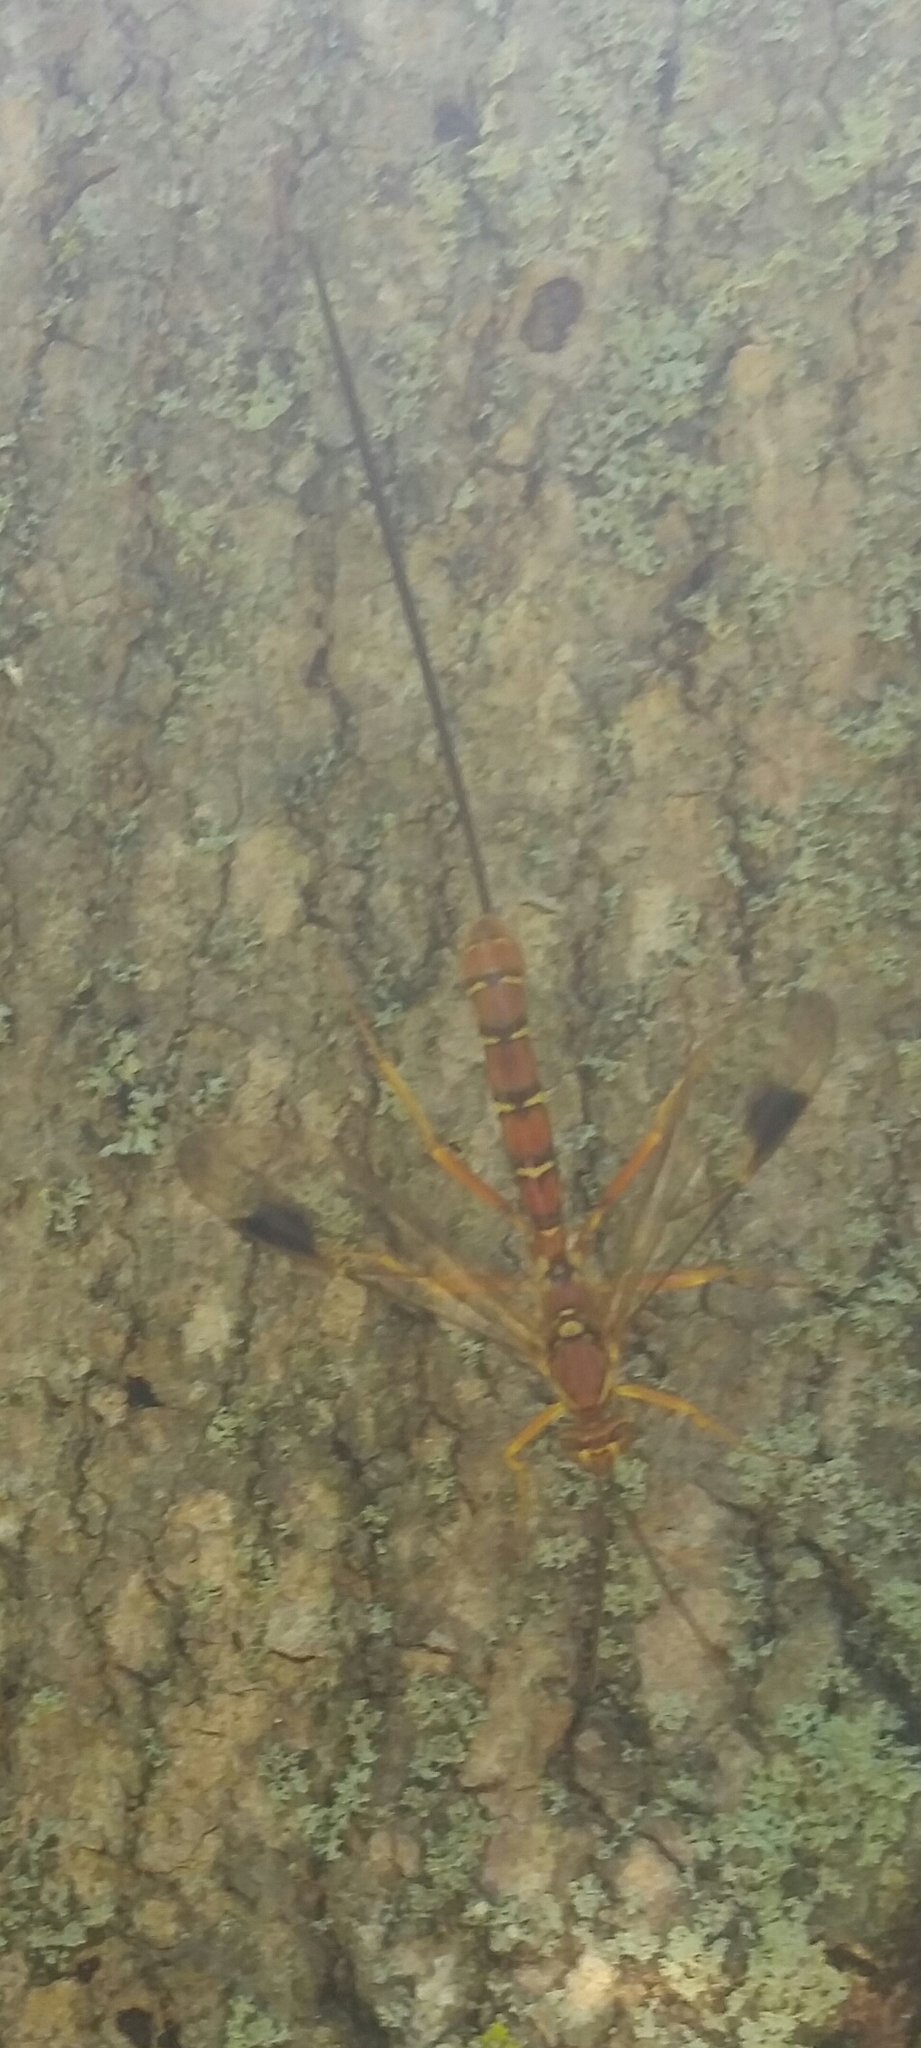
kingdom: Animalia
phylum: Arthropoda
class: Insecta
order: Hymenoptera
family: Ichneumonidae
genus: Megarhyssa
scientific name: Megarhyssa greenei
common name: Greene's giant ichneumonid wasp
